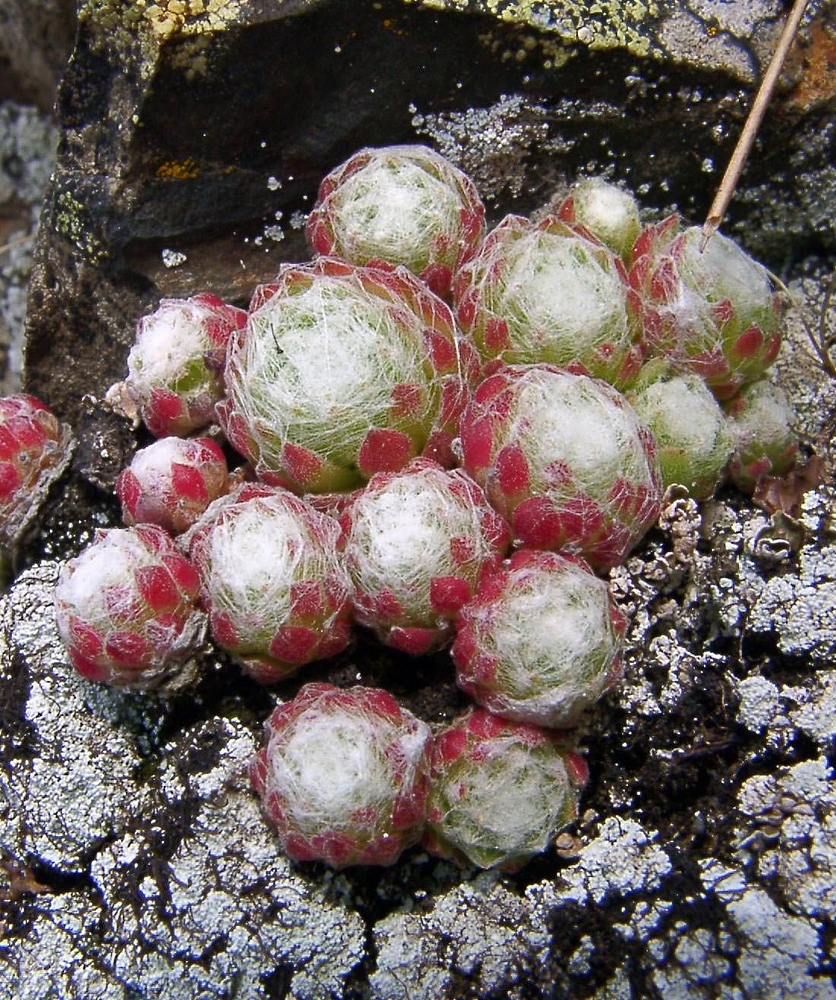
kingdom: Plantae
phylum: Tracheophyta
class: Magnoliopsida
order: Saxifragales
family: Crassulaceae
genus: Sempervivum
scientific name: Sempervivum arachnoideum
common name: Cobweb house-leek
